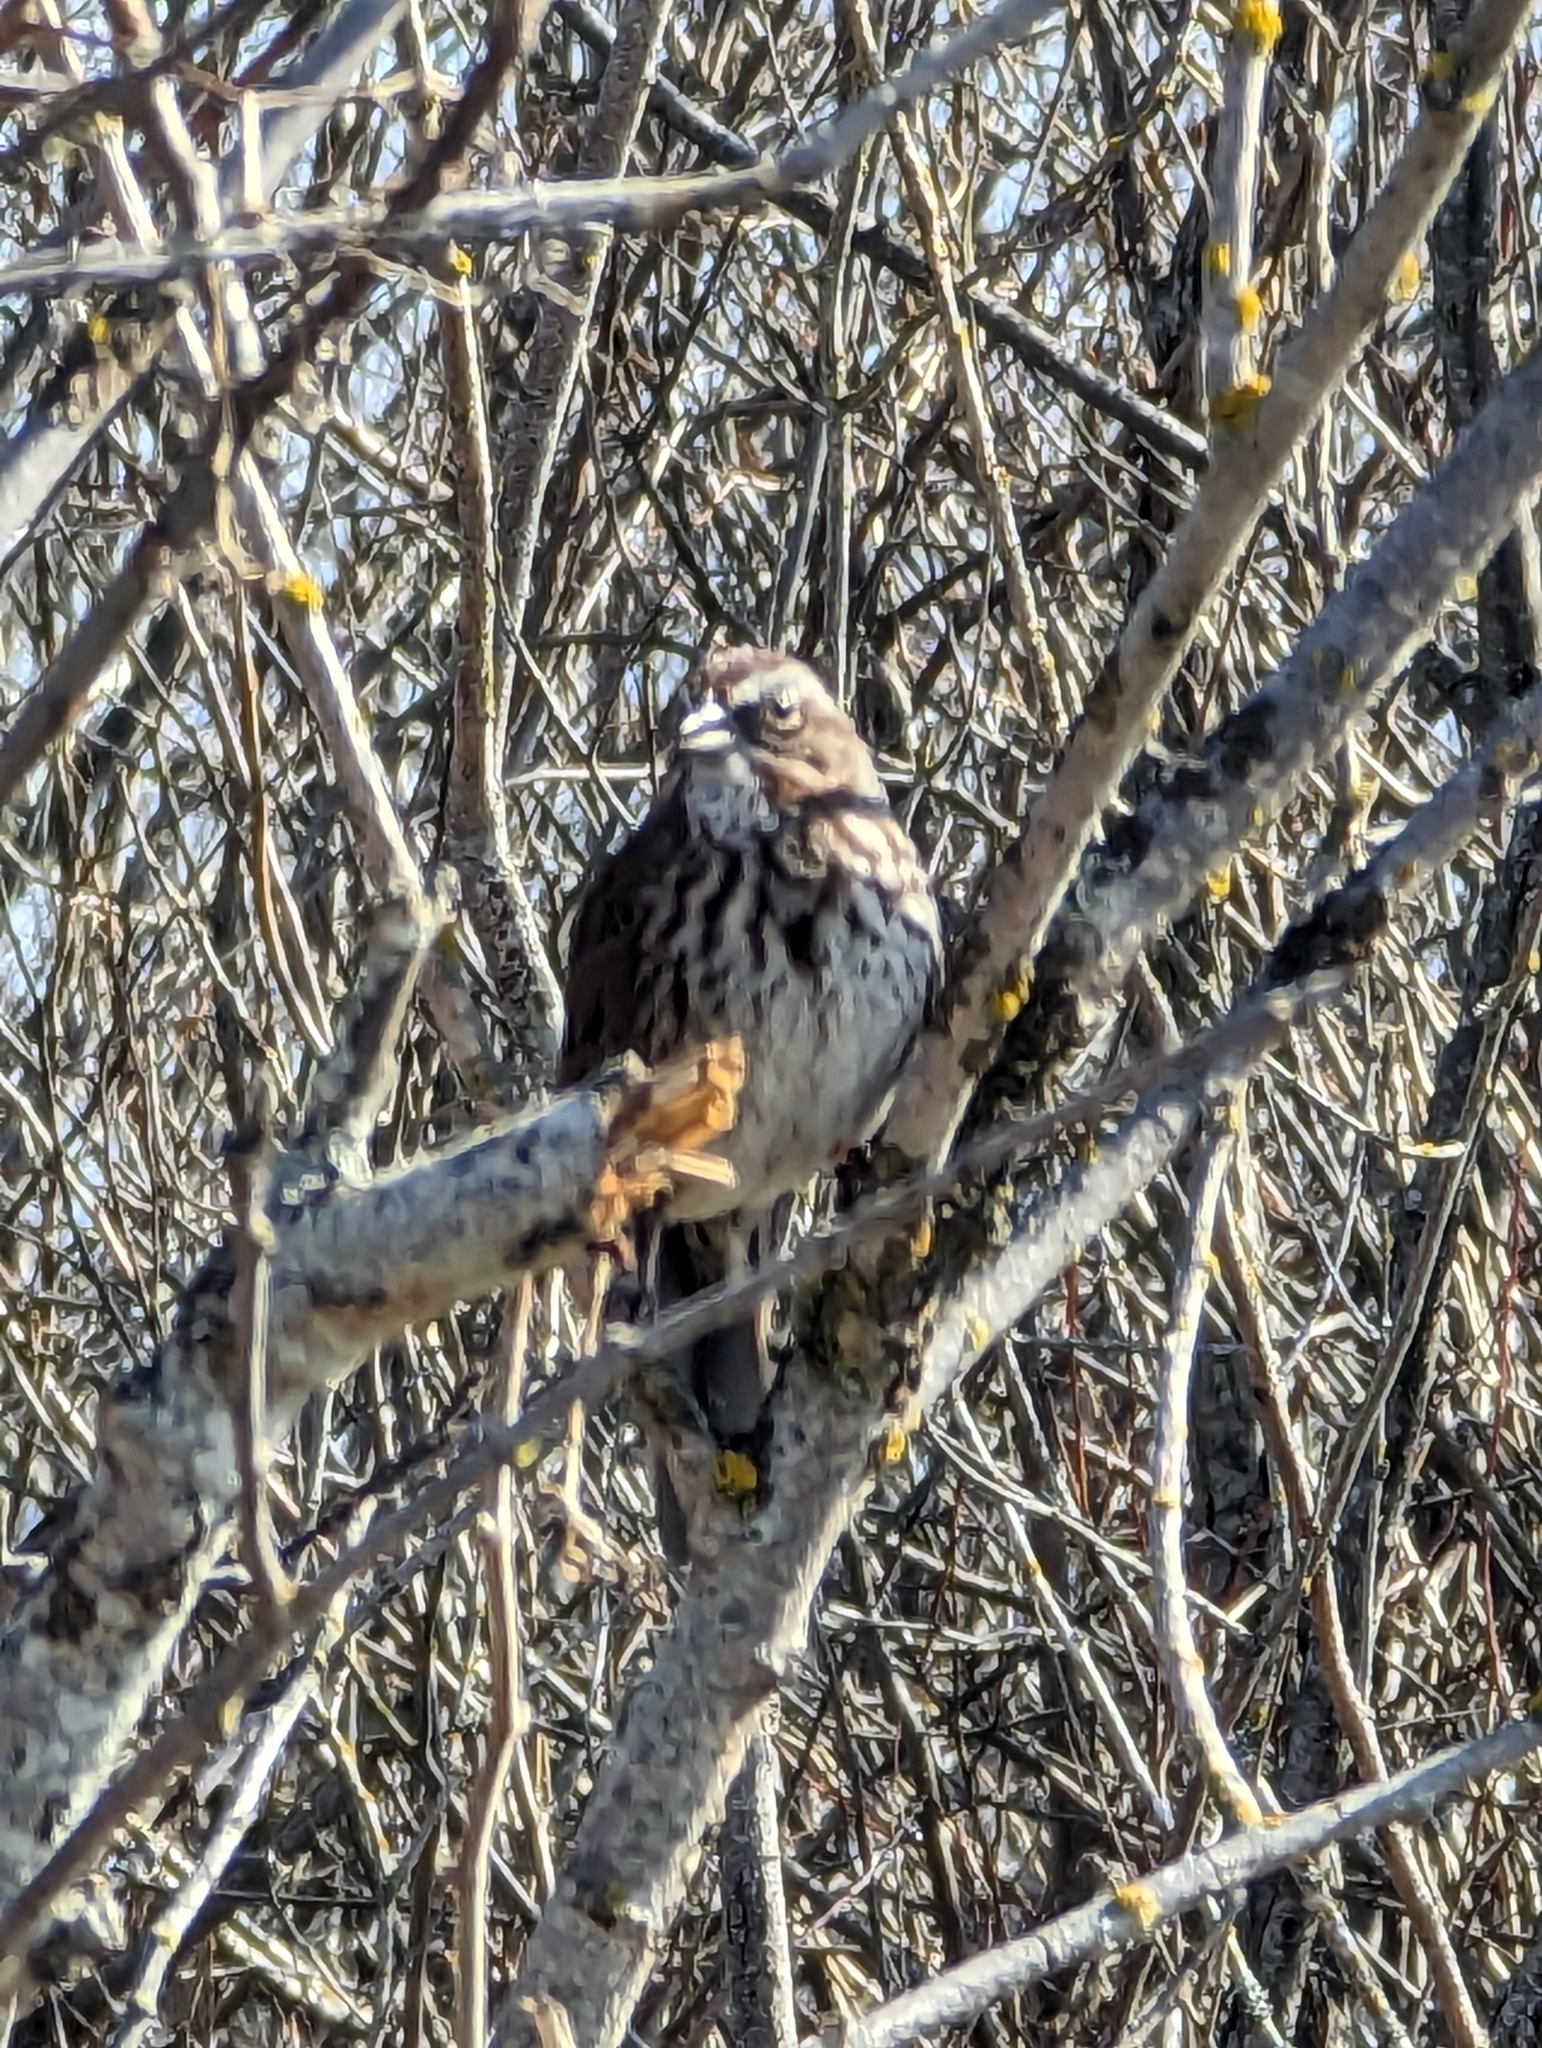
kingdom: Animalia
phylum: Chordata
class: Aves
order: Passeriformes
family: Passerellidae
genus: Melospiza
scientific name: Melospiza melodia
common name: Song sparrow
